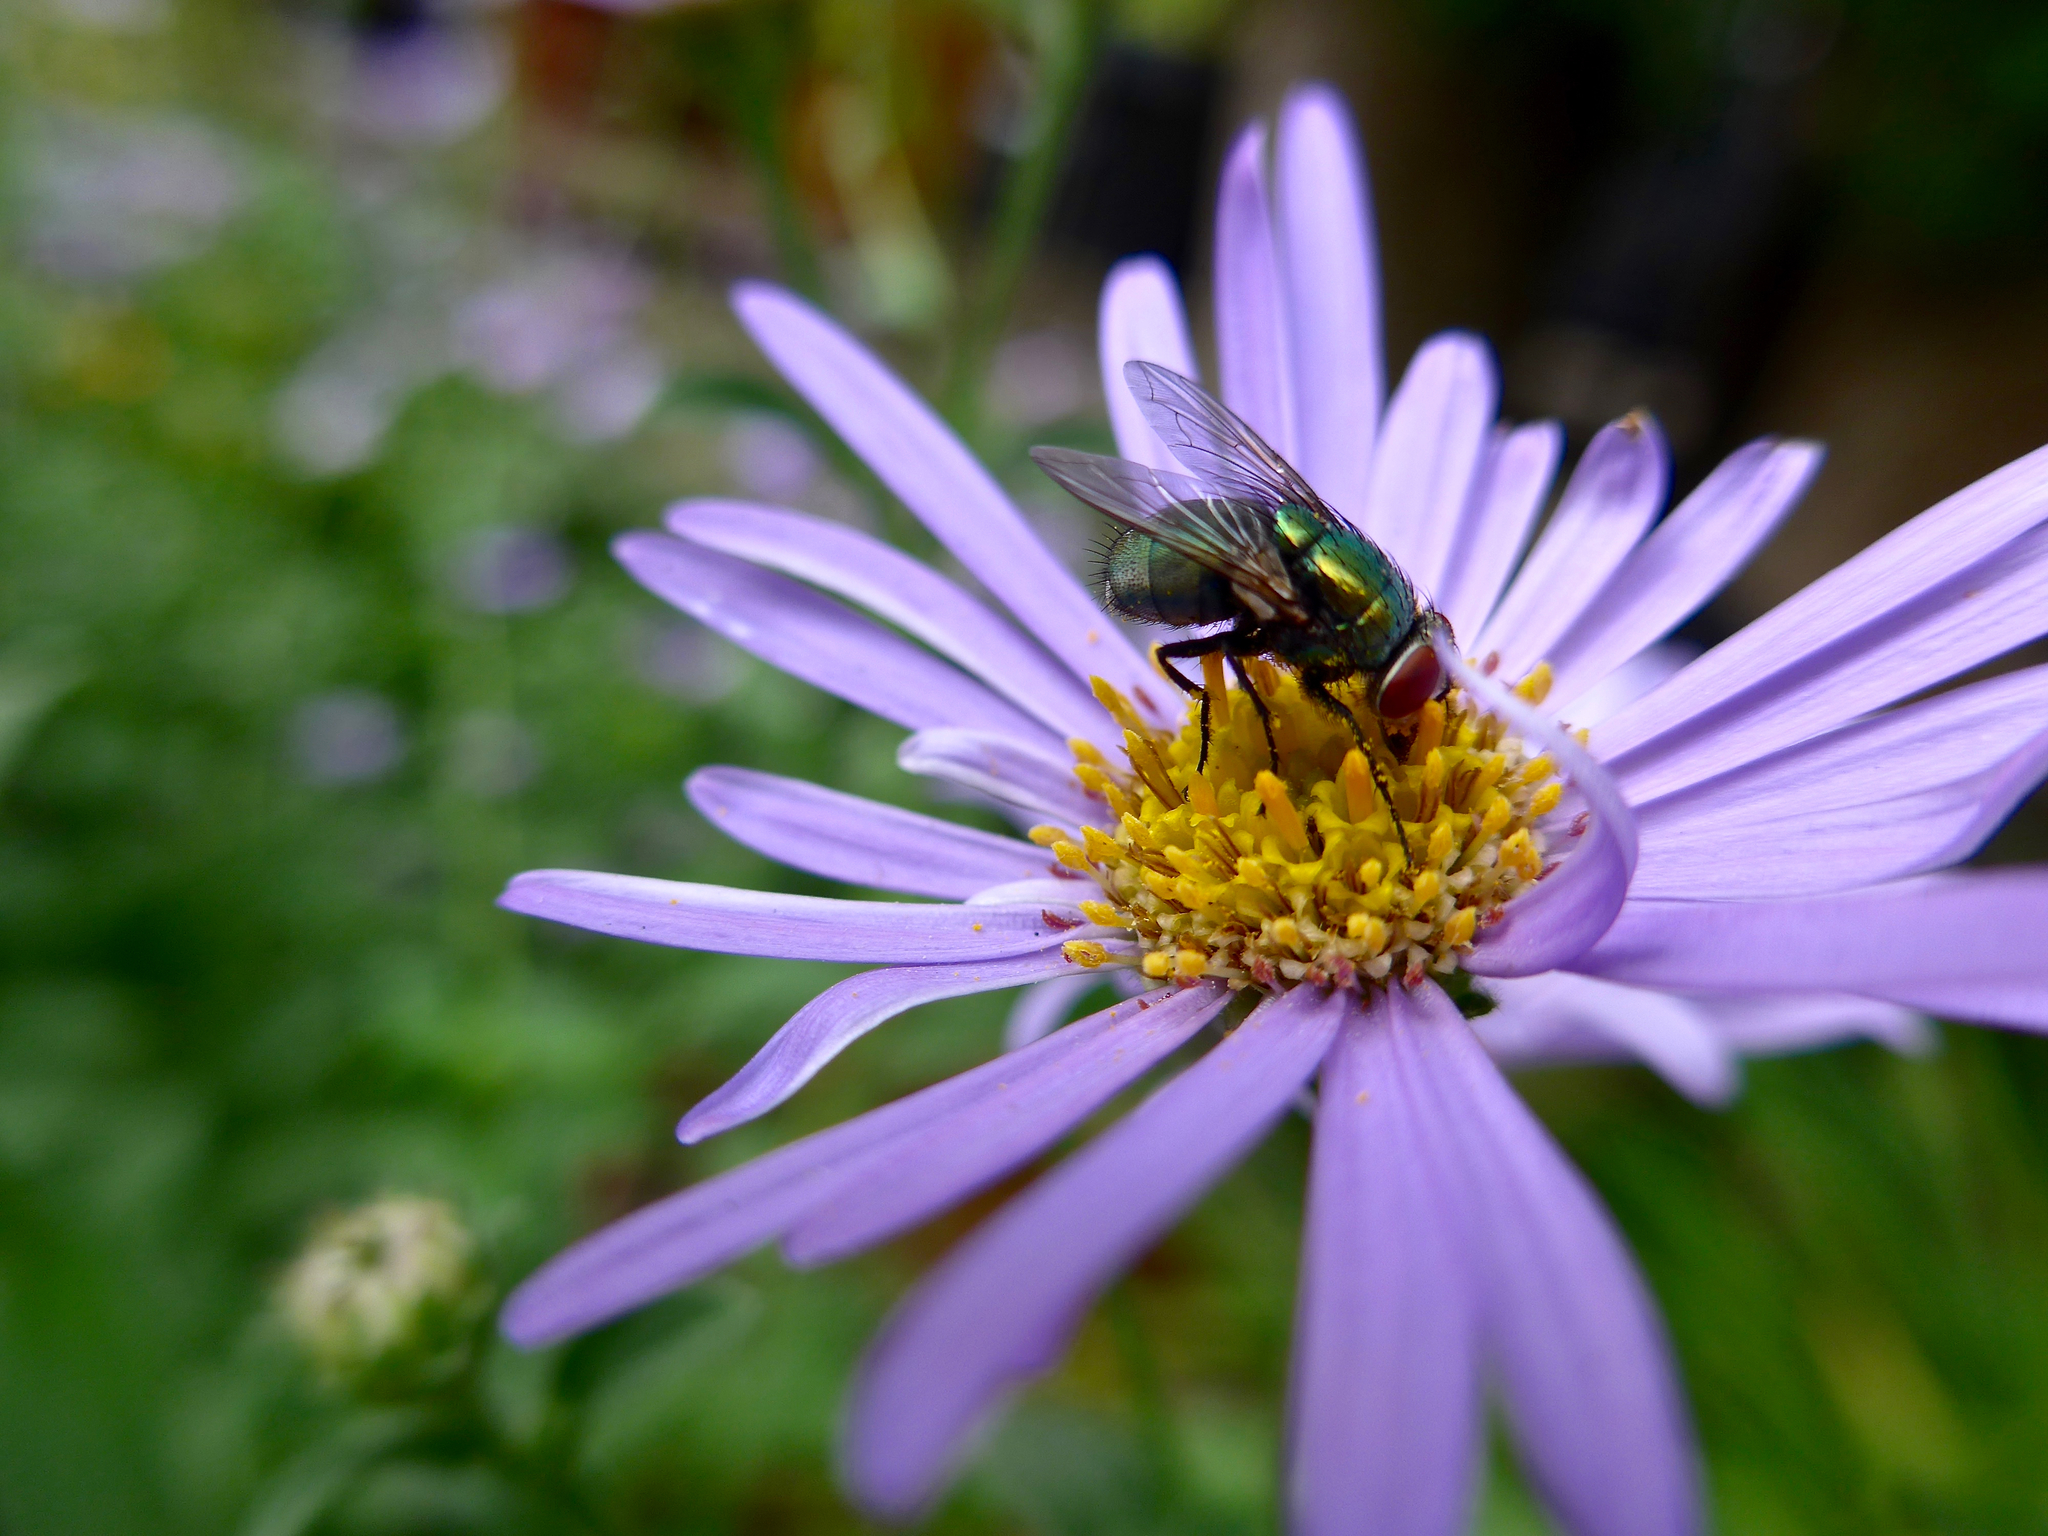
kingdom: Animalia
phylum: Arthropoda
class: Insecta
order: Diptera
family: Calliphoridae
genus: Lucilia
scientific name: Lucilia sericata
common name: Blow fly
